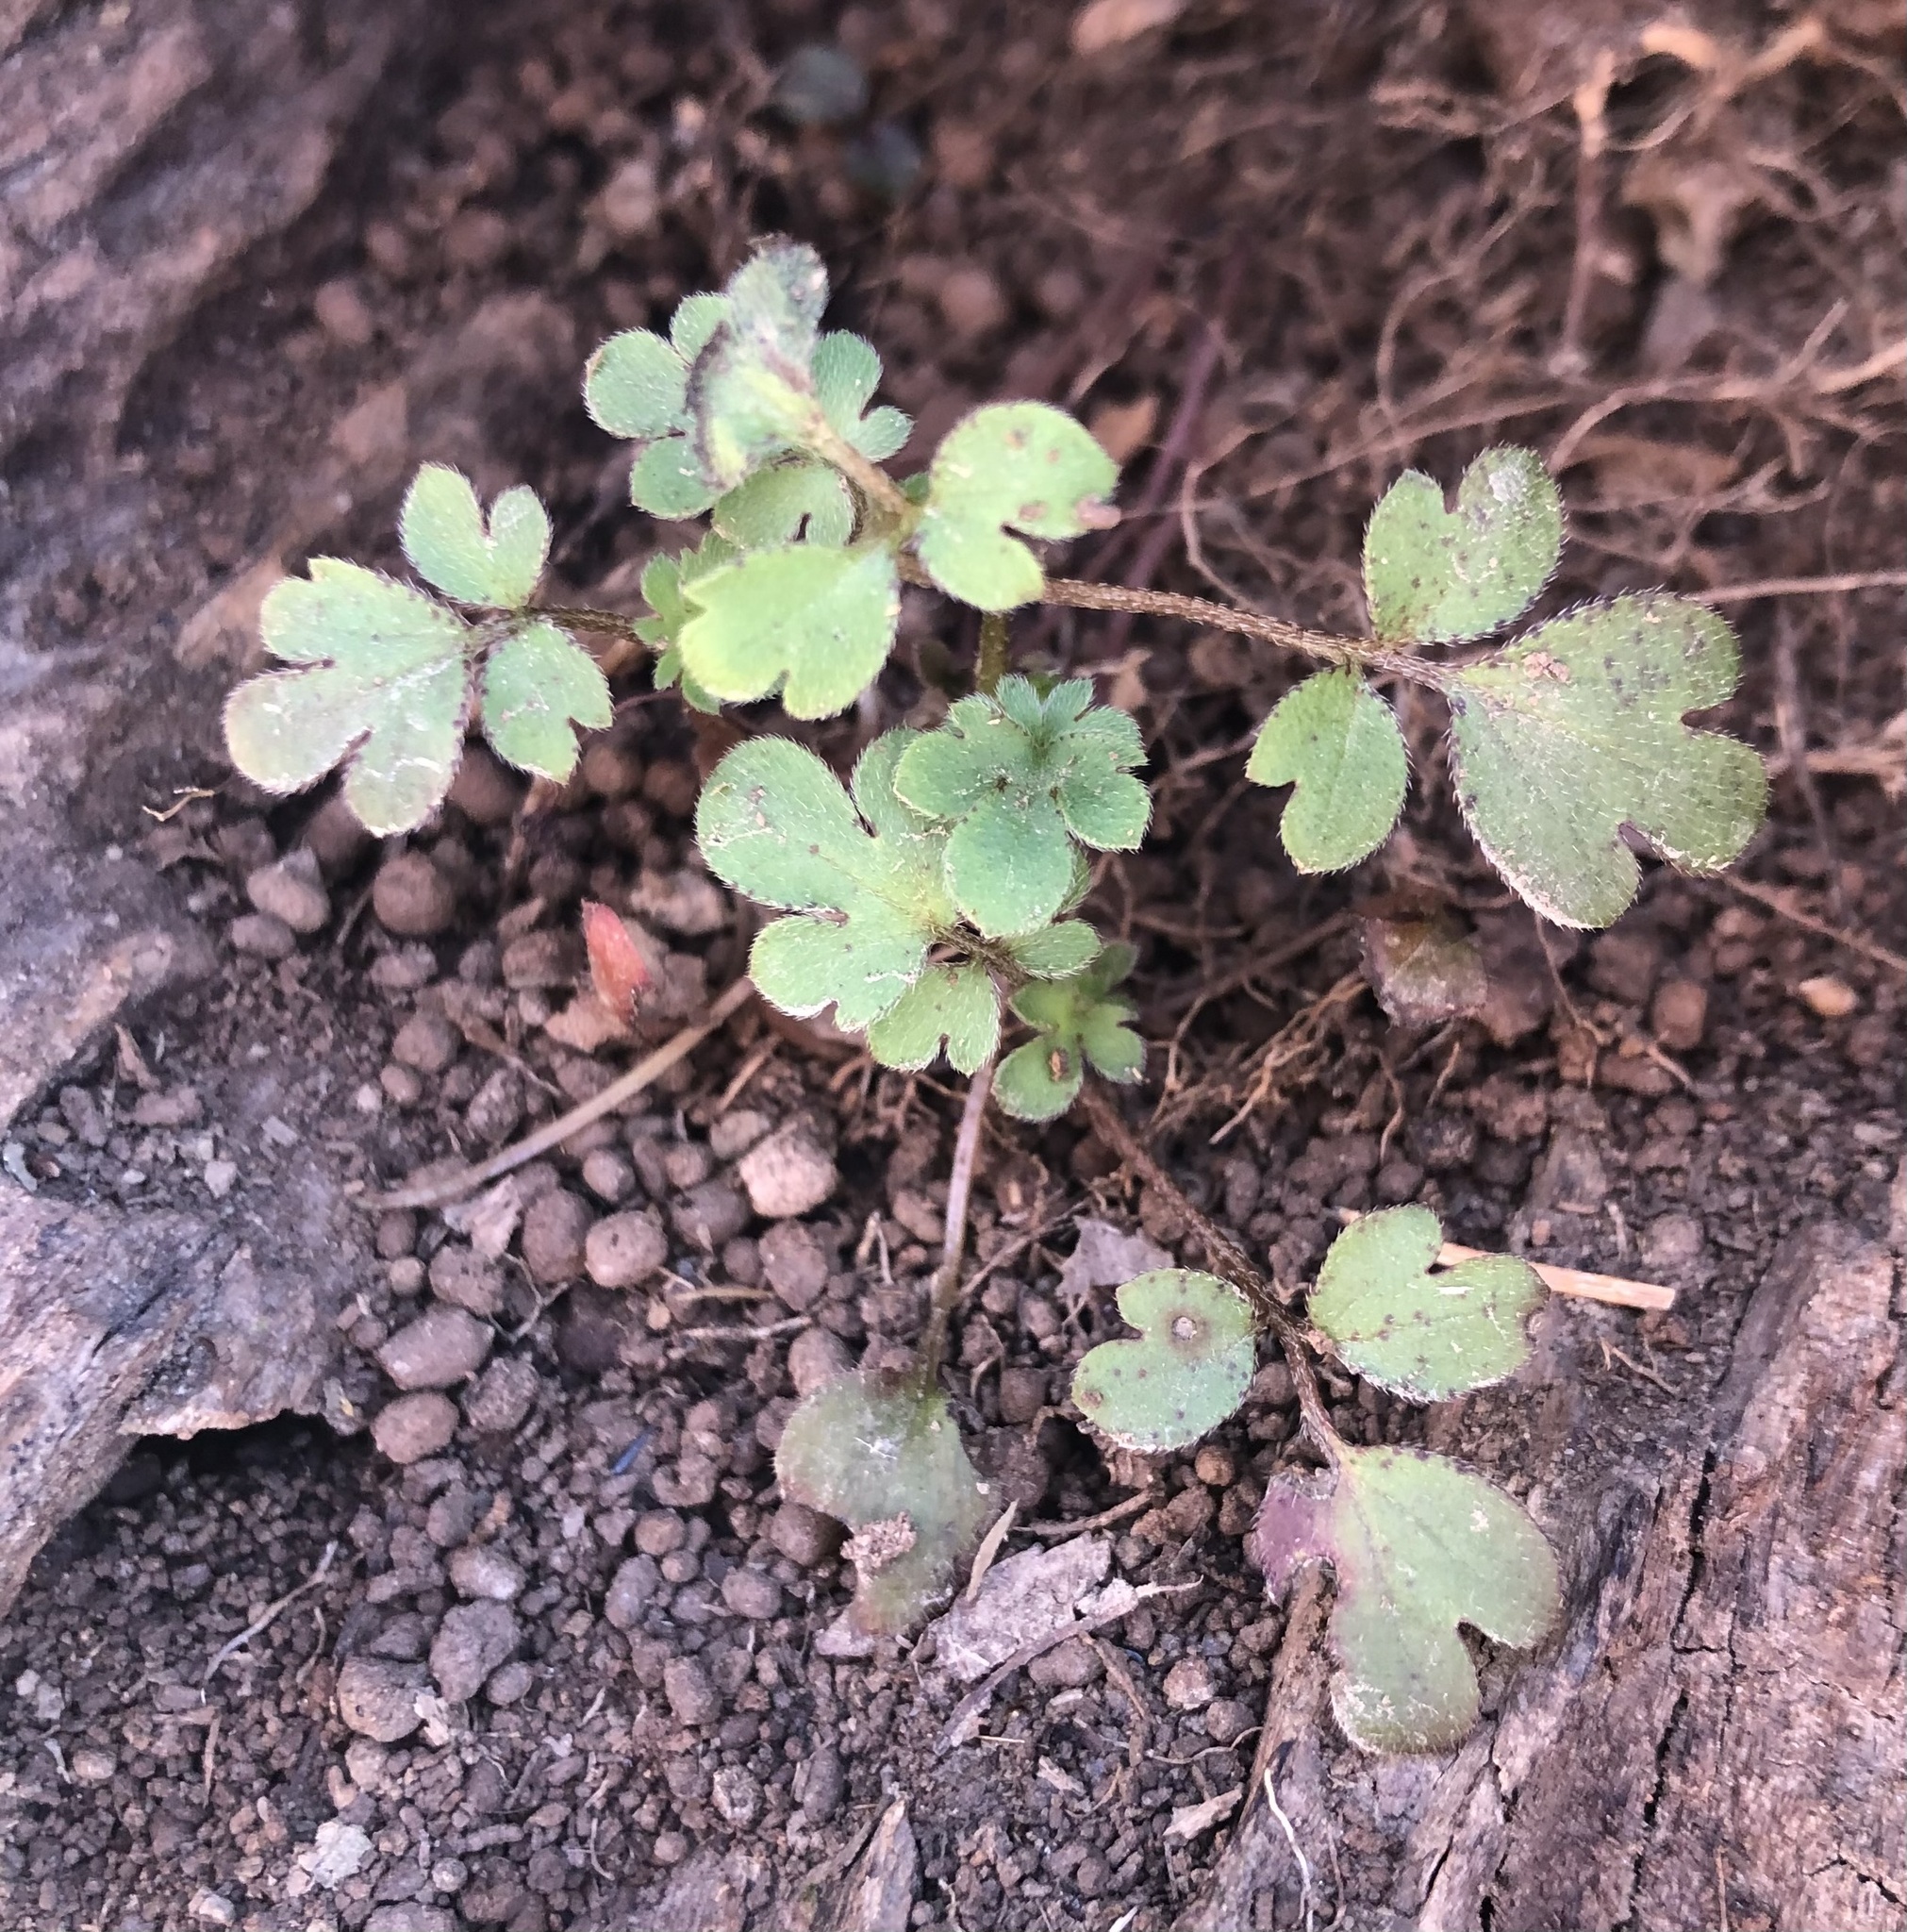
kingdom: Plantae
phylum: Tracheophyta
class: Magnoliopsida
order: Boraginales
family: Hydrophyllaceae
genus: Phacelia
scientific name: Phacelia covillei
